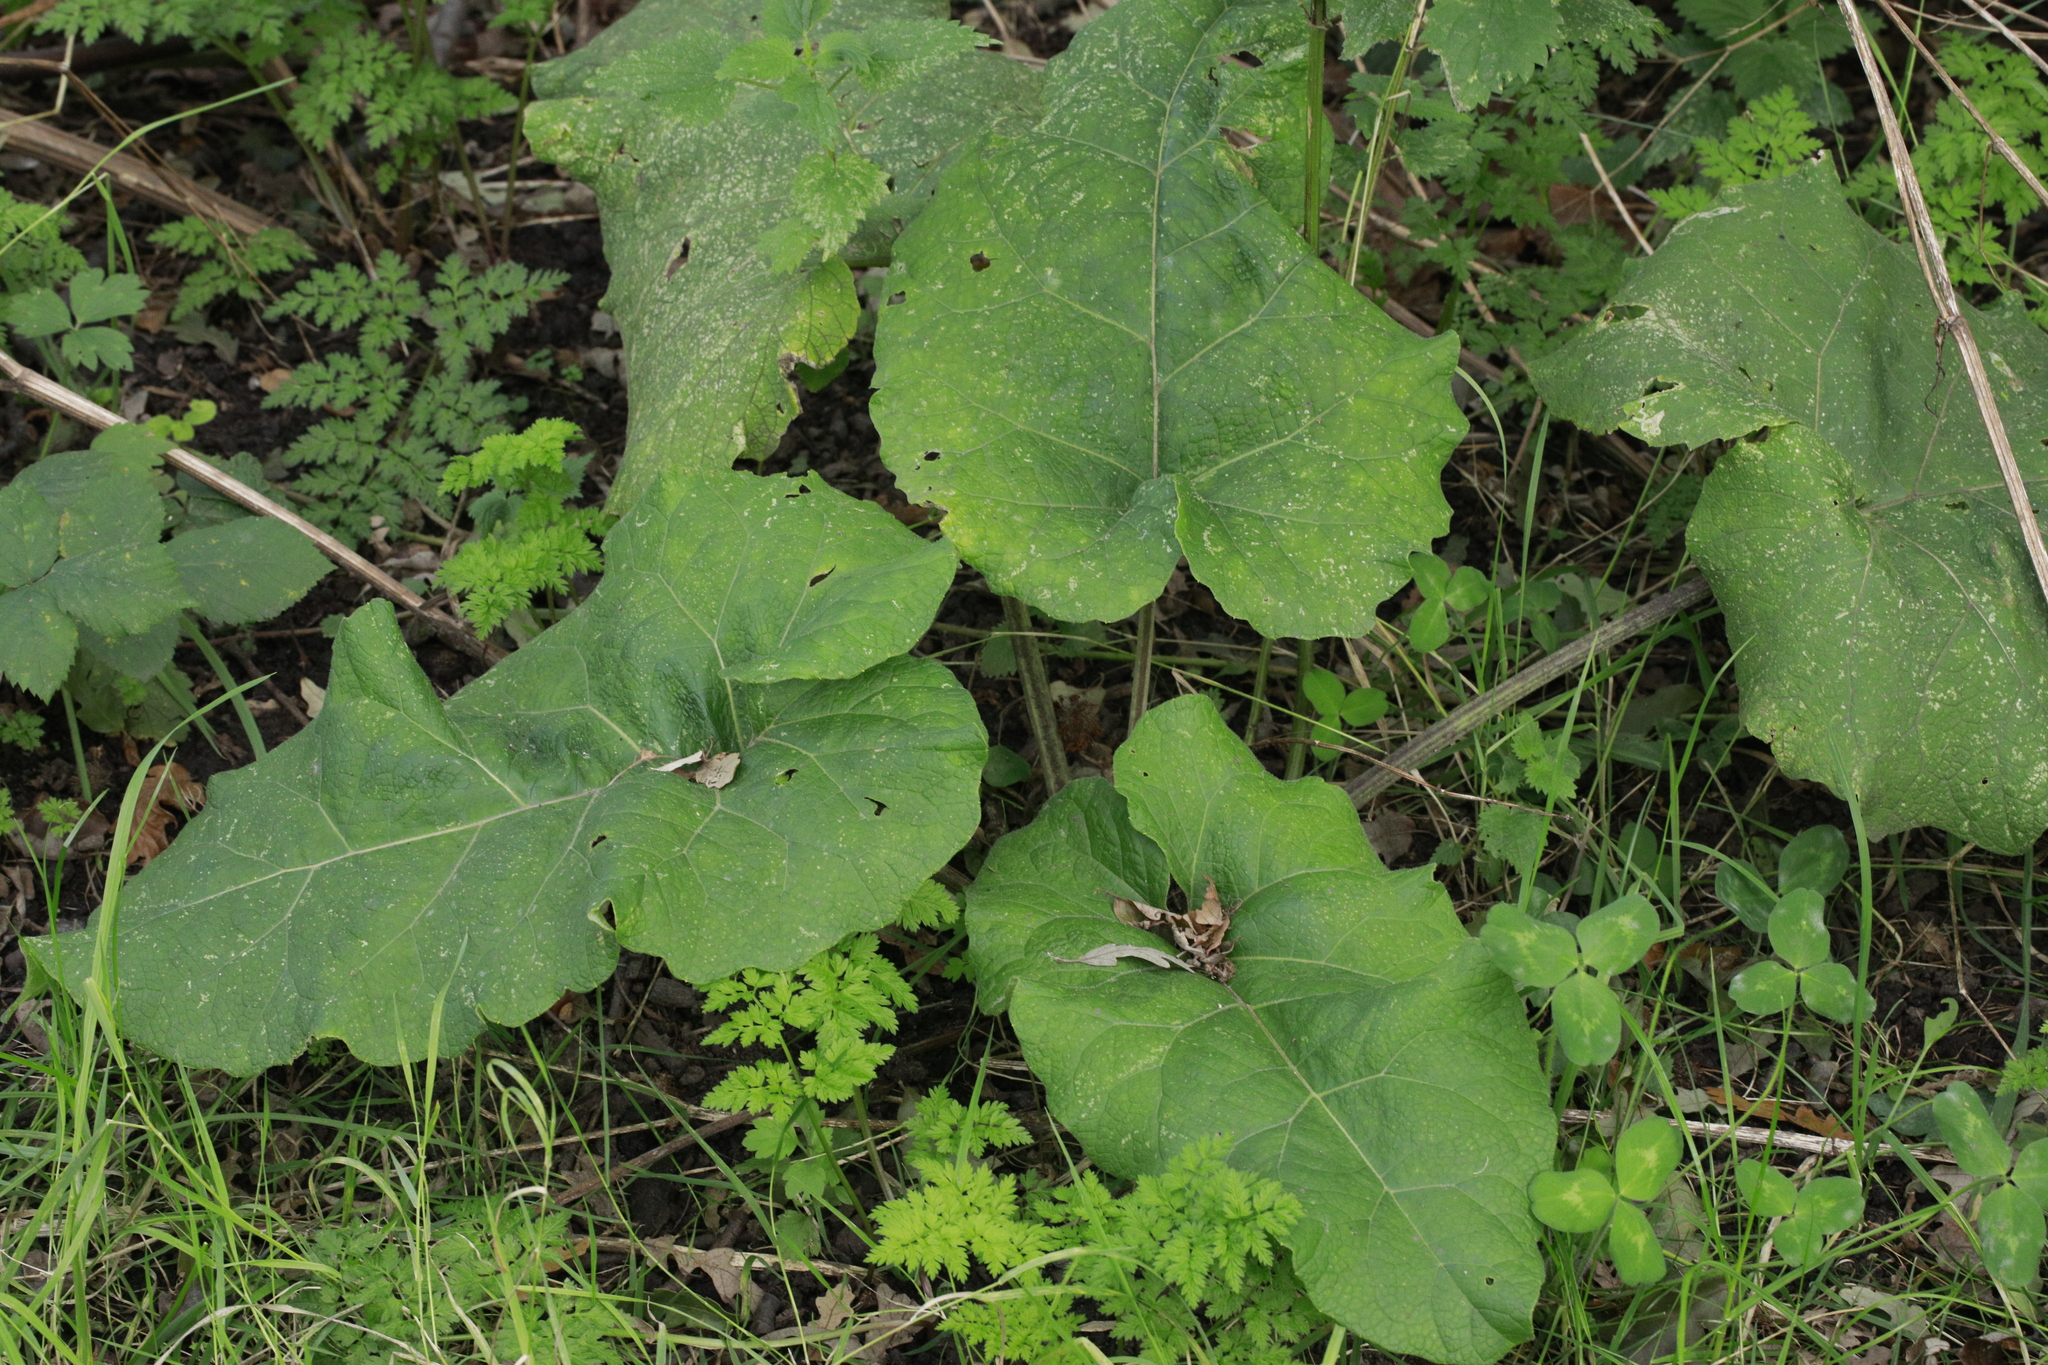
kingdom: Plantae
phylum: Tracheophyta
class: Magnoliopsida
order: Asterales
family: Asteraceae
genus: Arctium
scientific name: Arctium minus
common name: Lesser burdock
